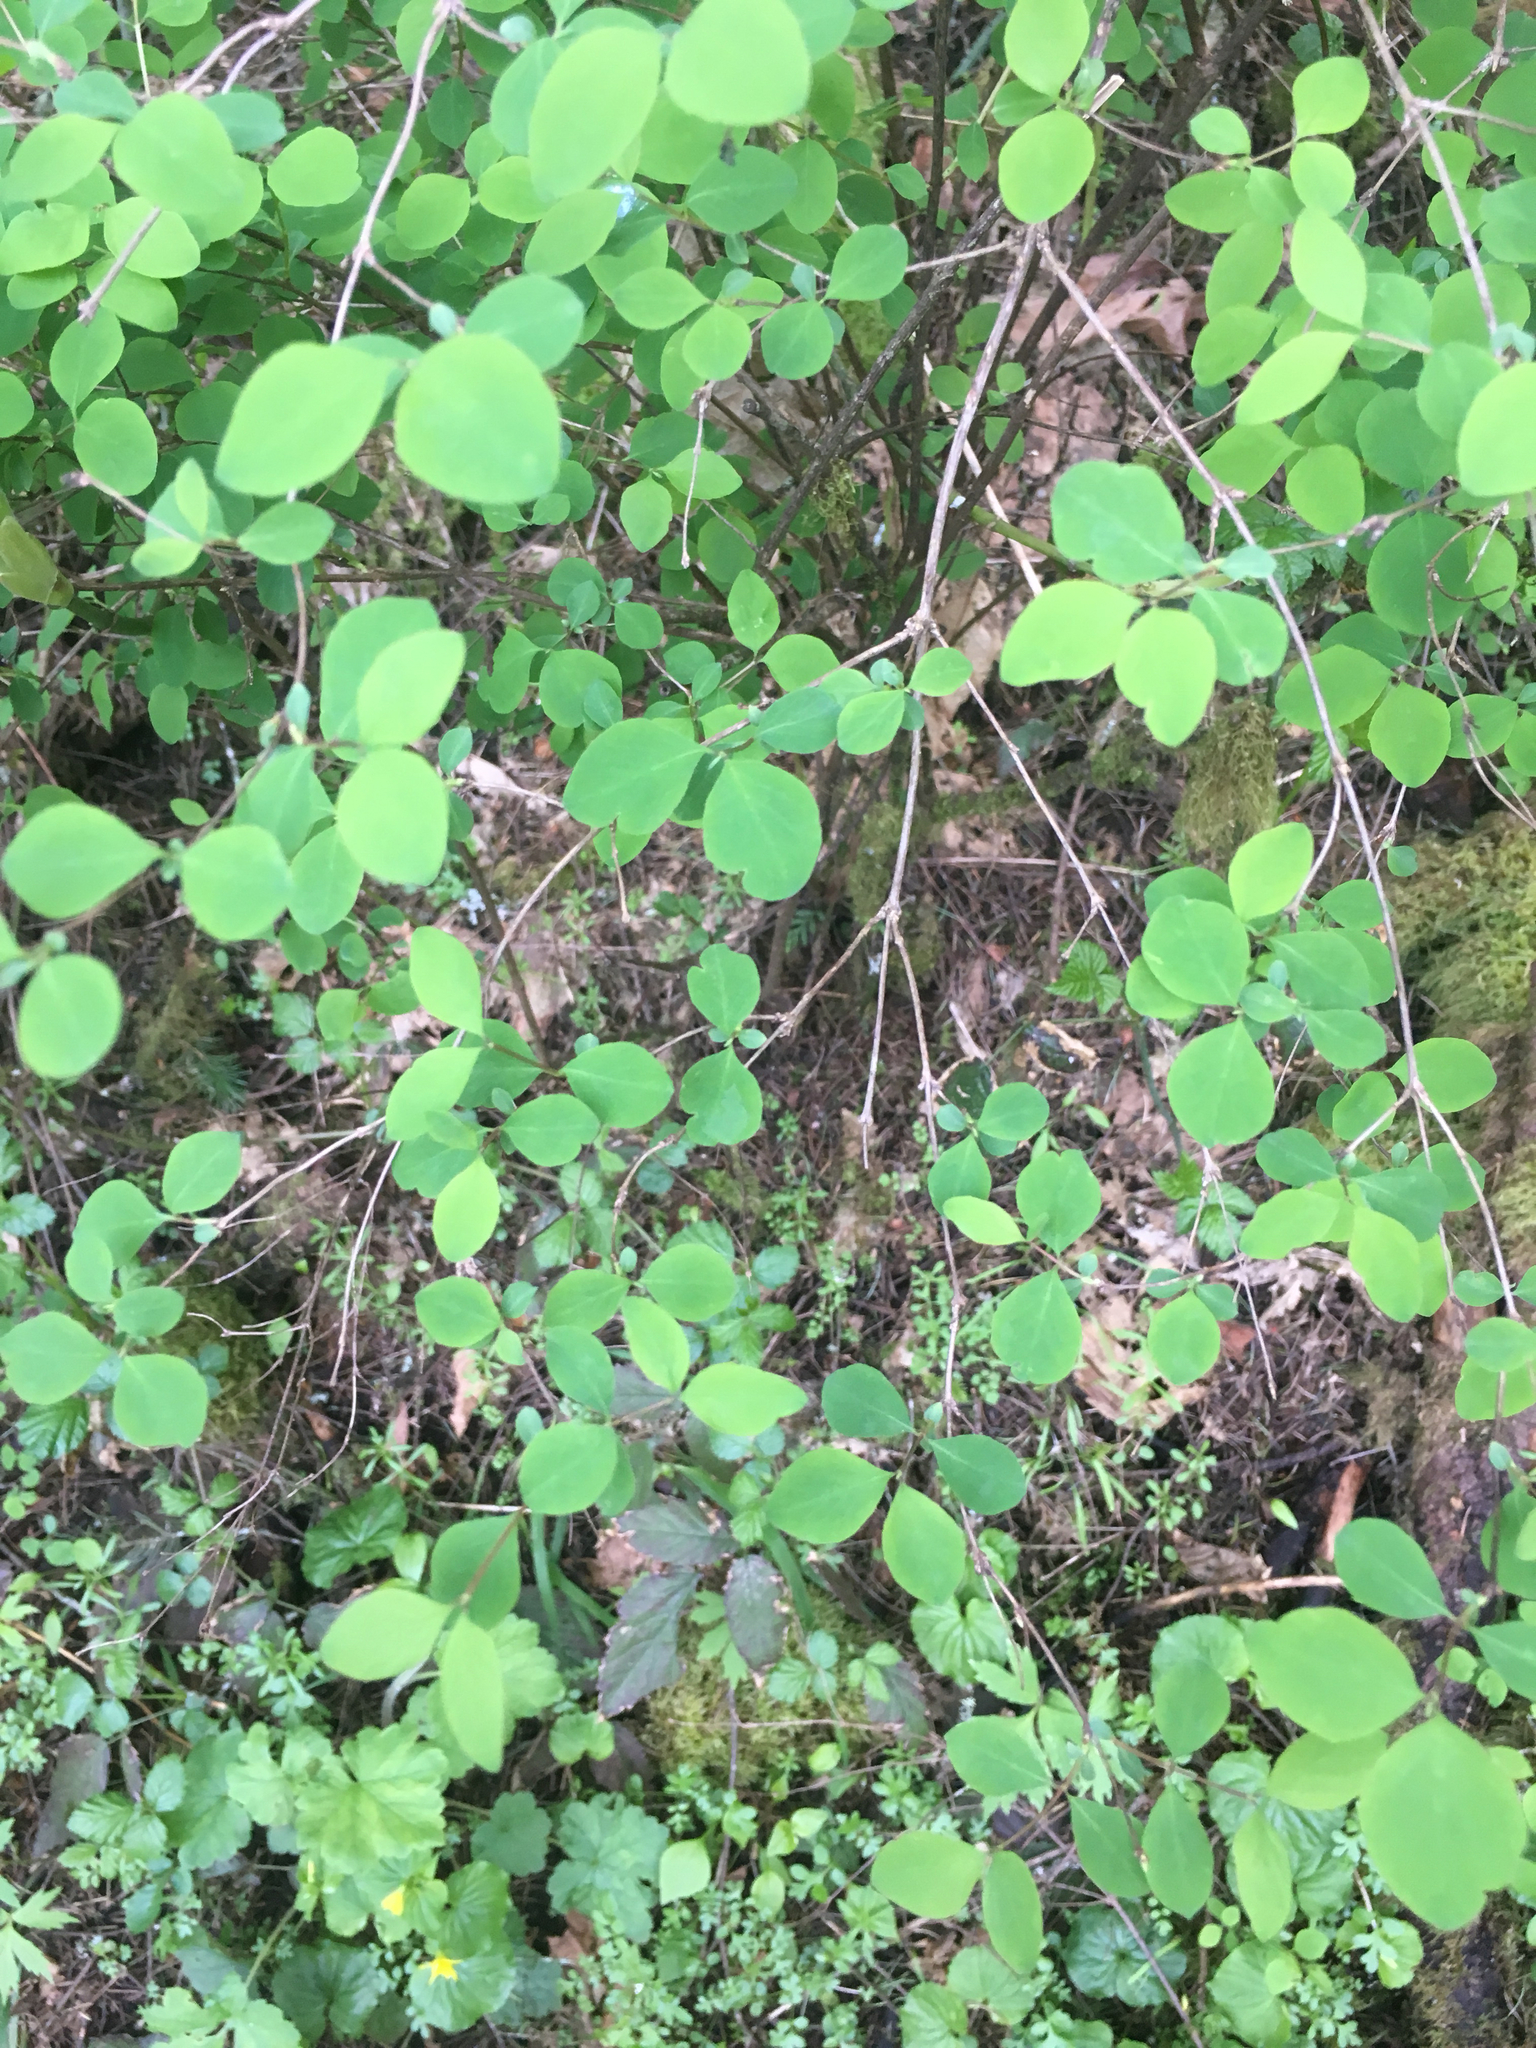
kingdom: Plantae
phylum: Tracheophyta
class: Magnoliopsida
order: Dipsacales
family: Caprifoliaceae
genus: Symphoricarpos
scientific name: Symphoricarpos albus
